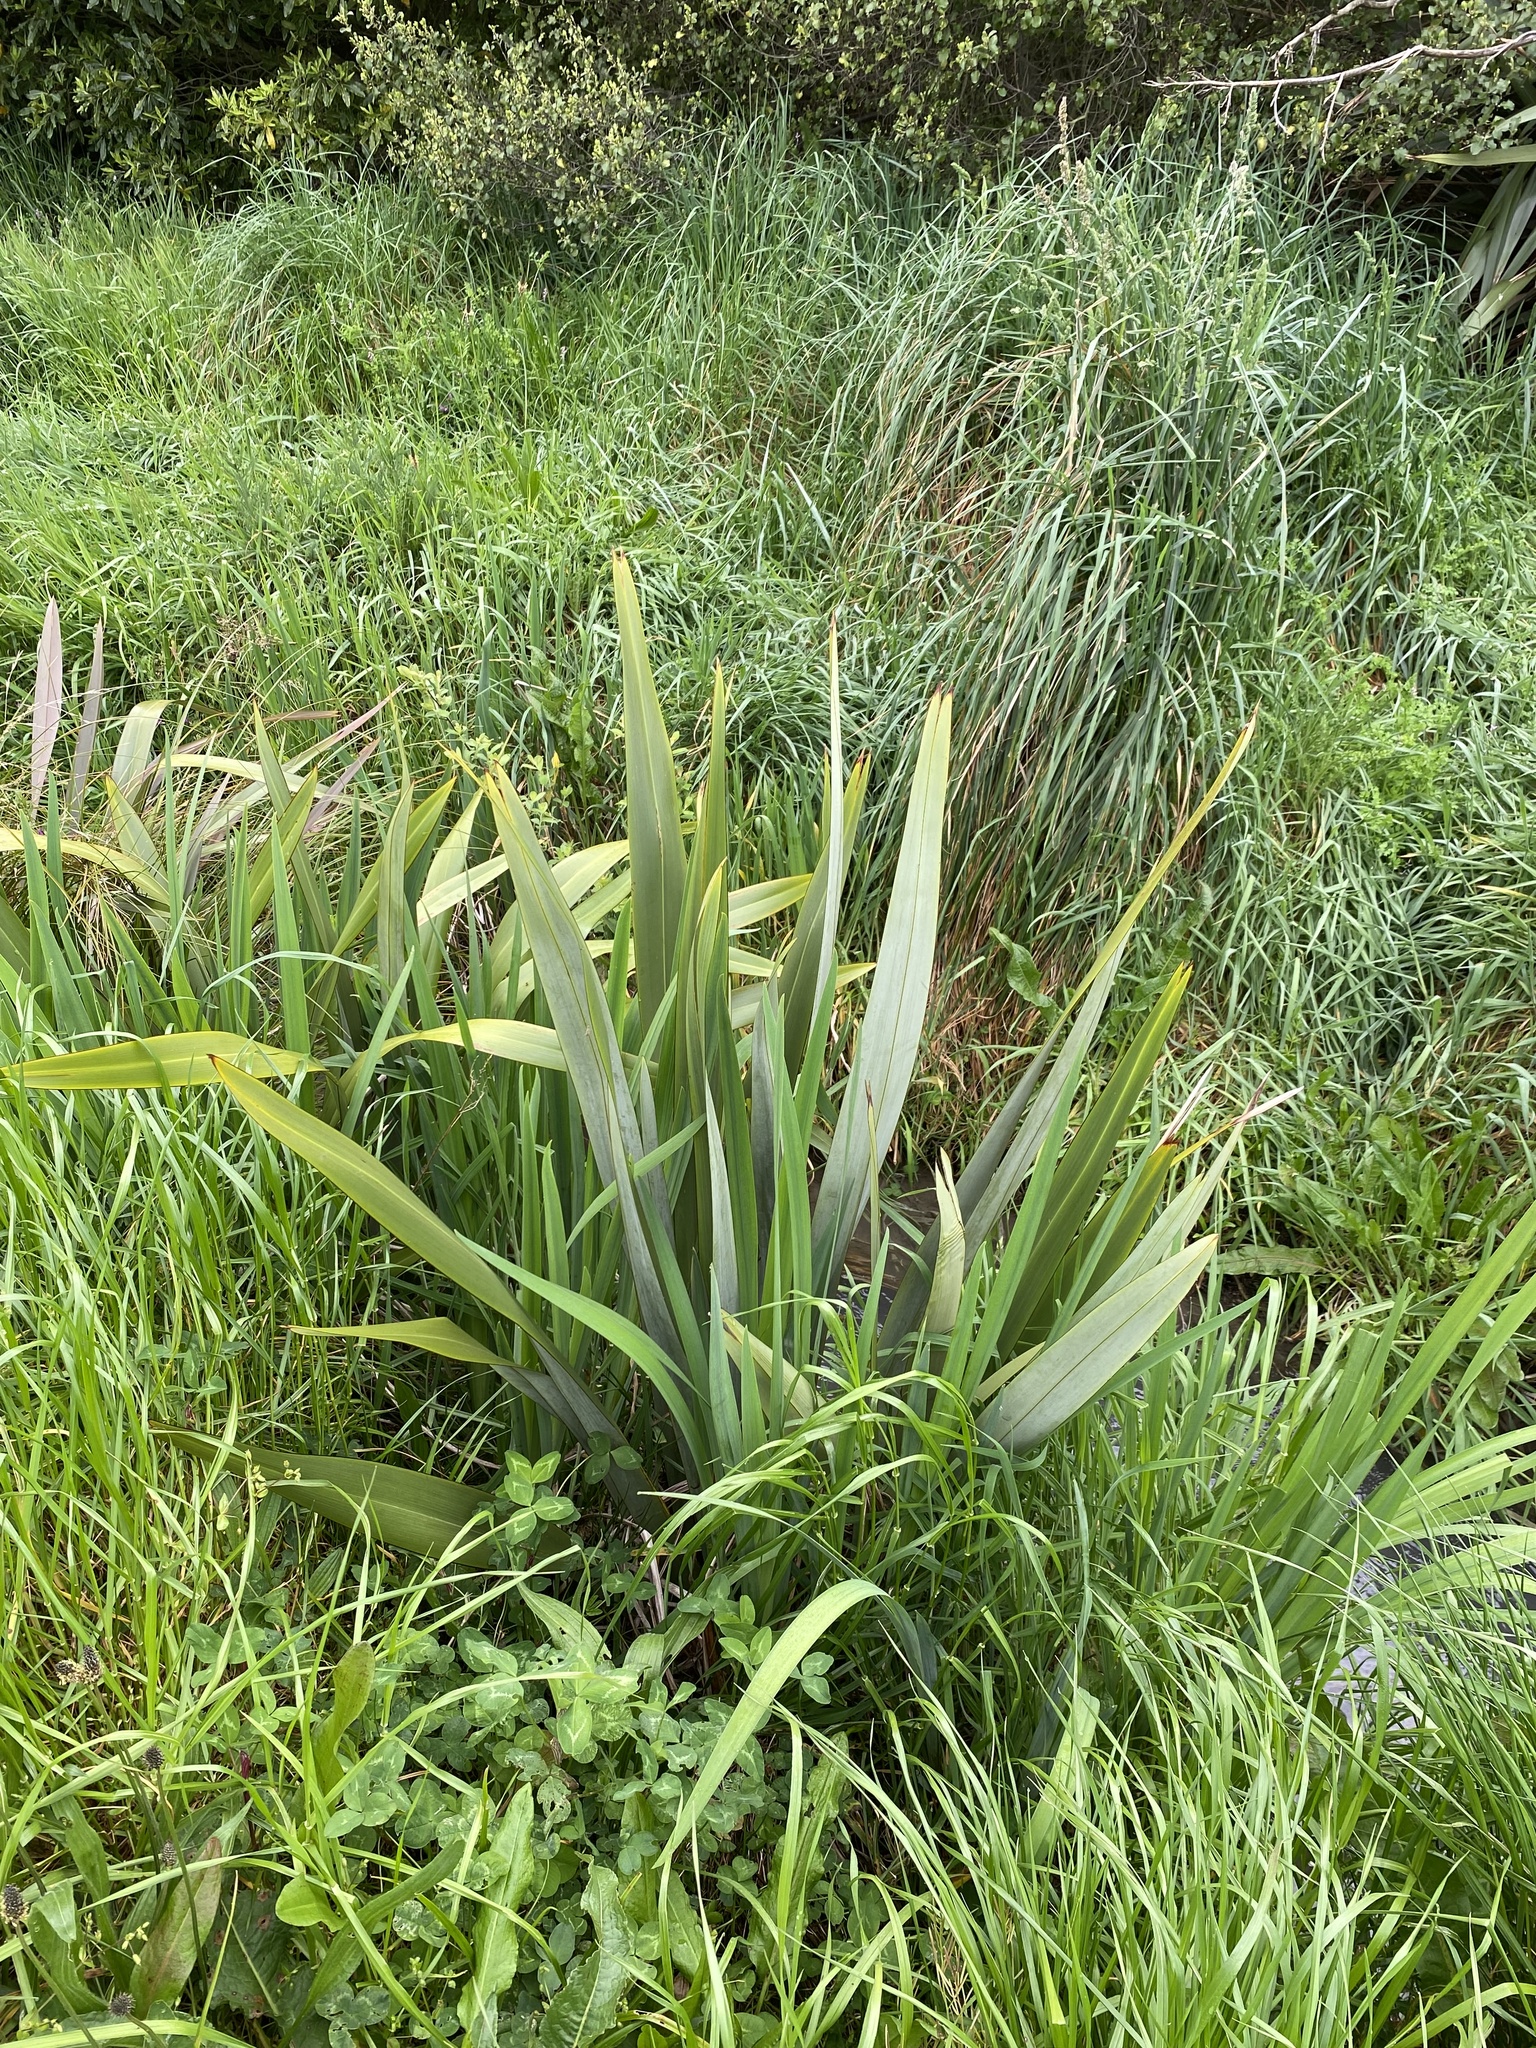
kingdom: Plantae
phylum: Tracheophyta
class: Liliopsida
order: Asparagales
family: Asphodelaceae
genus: Phormium
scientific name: Phormium tenax
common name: New zealand flax
